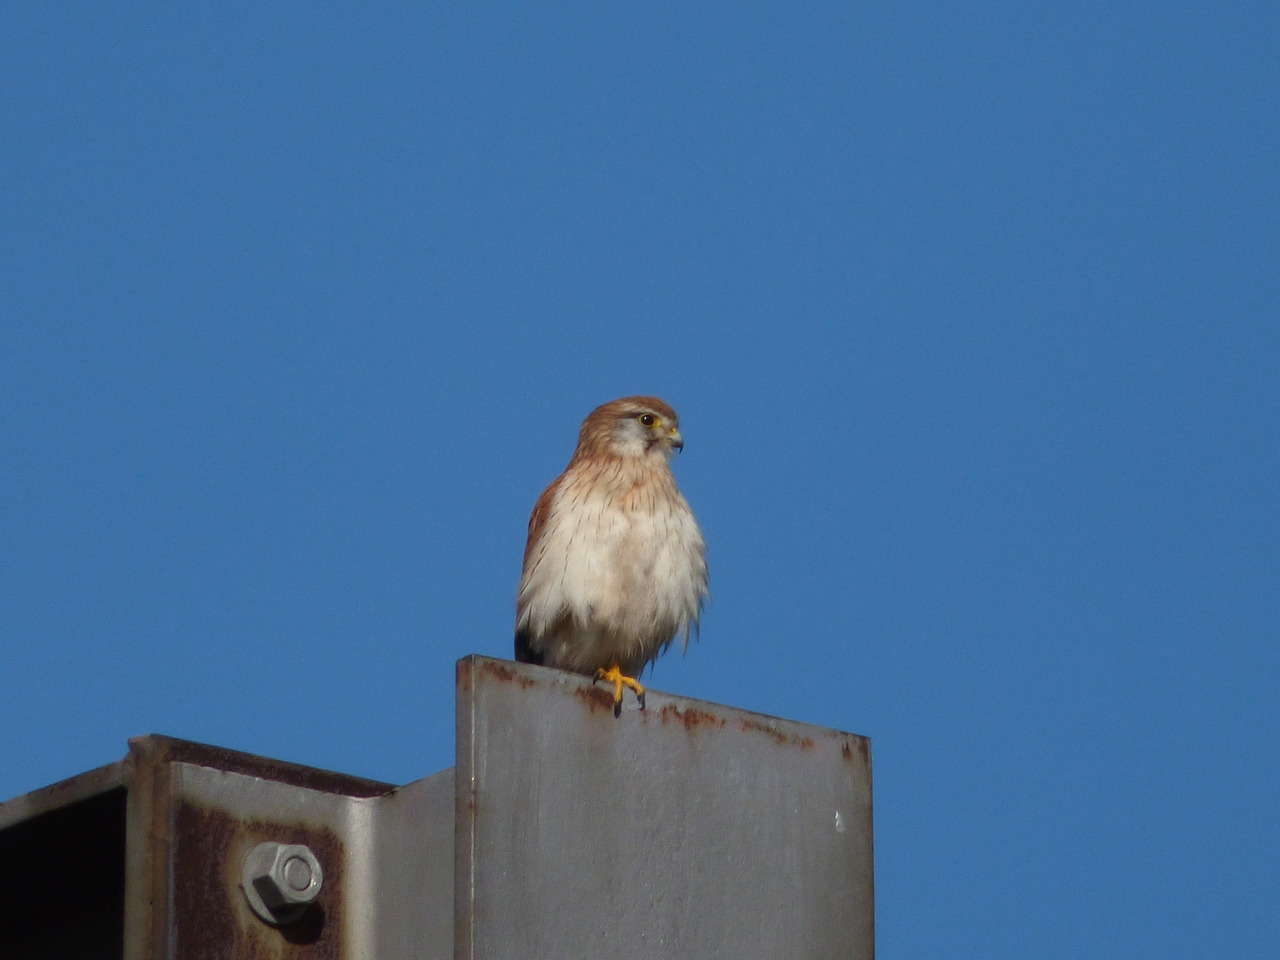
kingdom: Animalia
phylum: Chordata
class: Aves
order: Falconiformes
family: Falconidae
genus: Falco
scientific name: Falco cenchroides
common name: Nankeen kestrel
